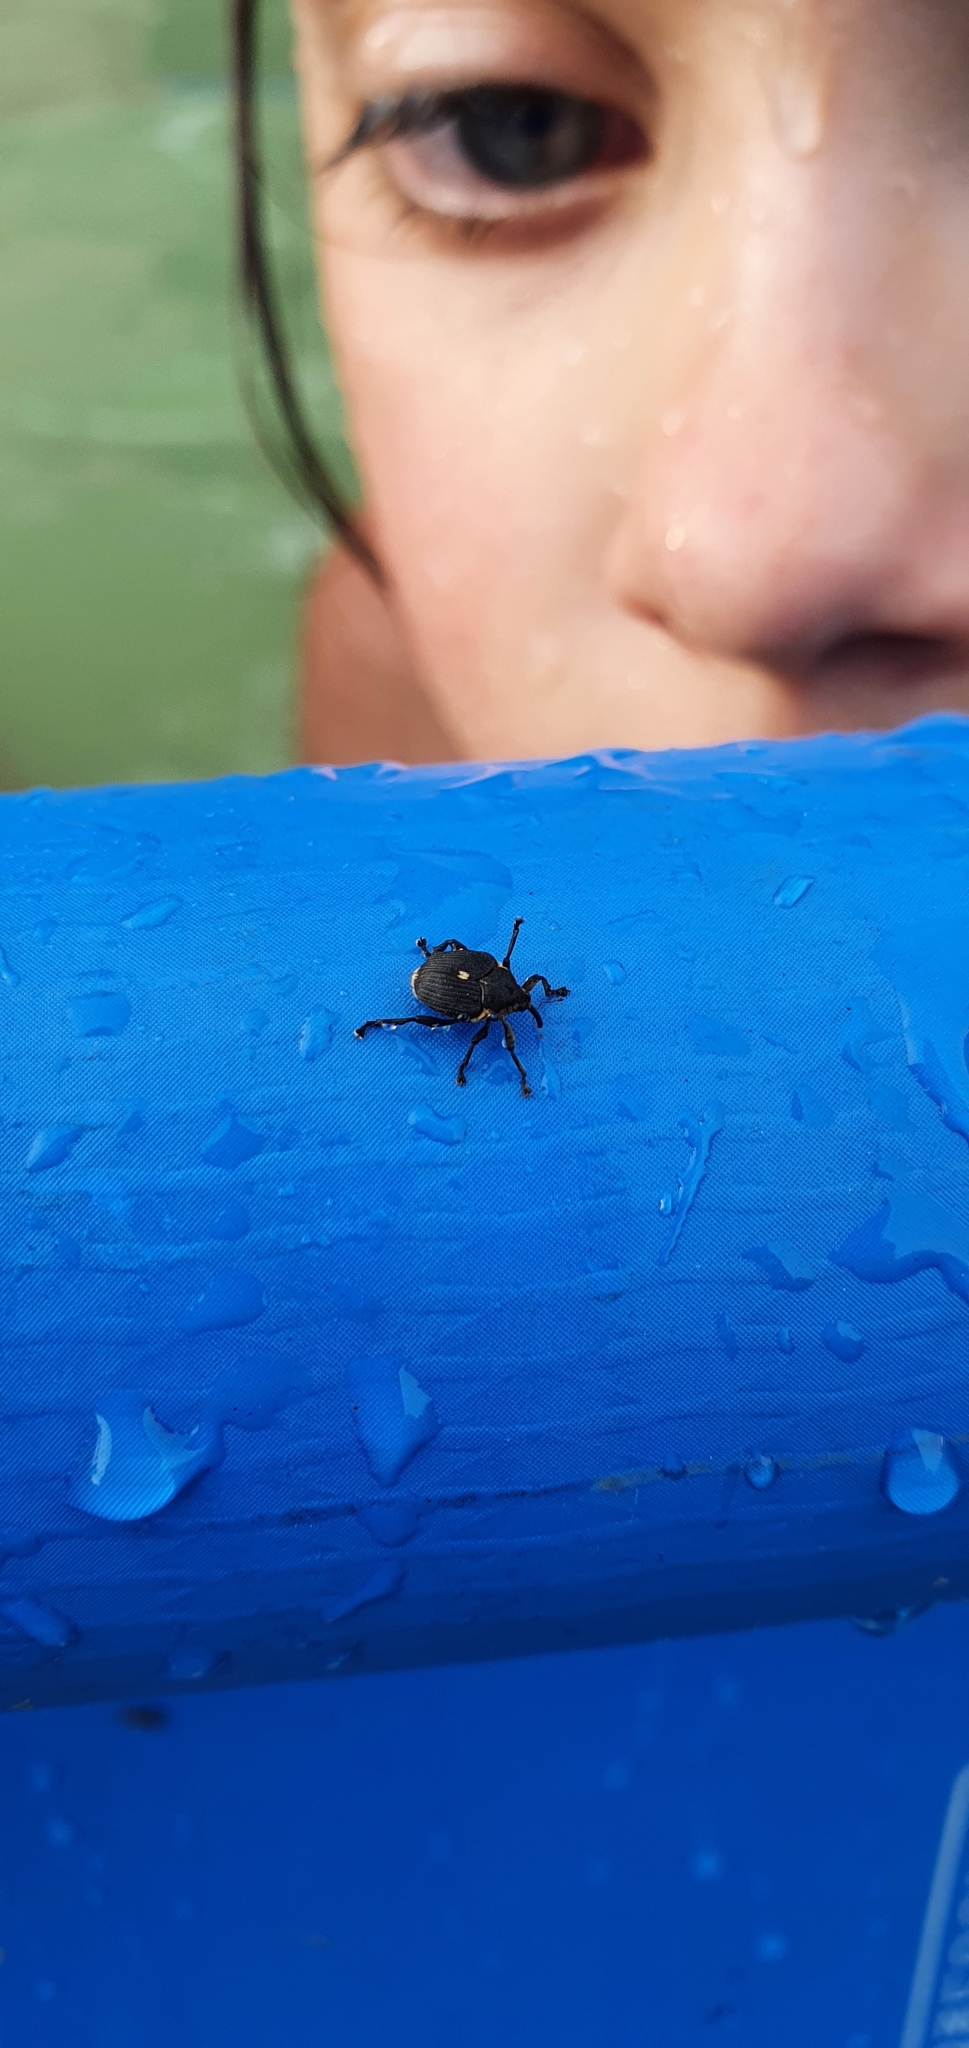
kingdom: Animalia
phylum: Arthropoda
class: Insecta
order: Coleoptera
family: Curculionidae
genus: Mononychus
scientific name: Mononychus punctumalbum
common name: Iris weevil
